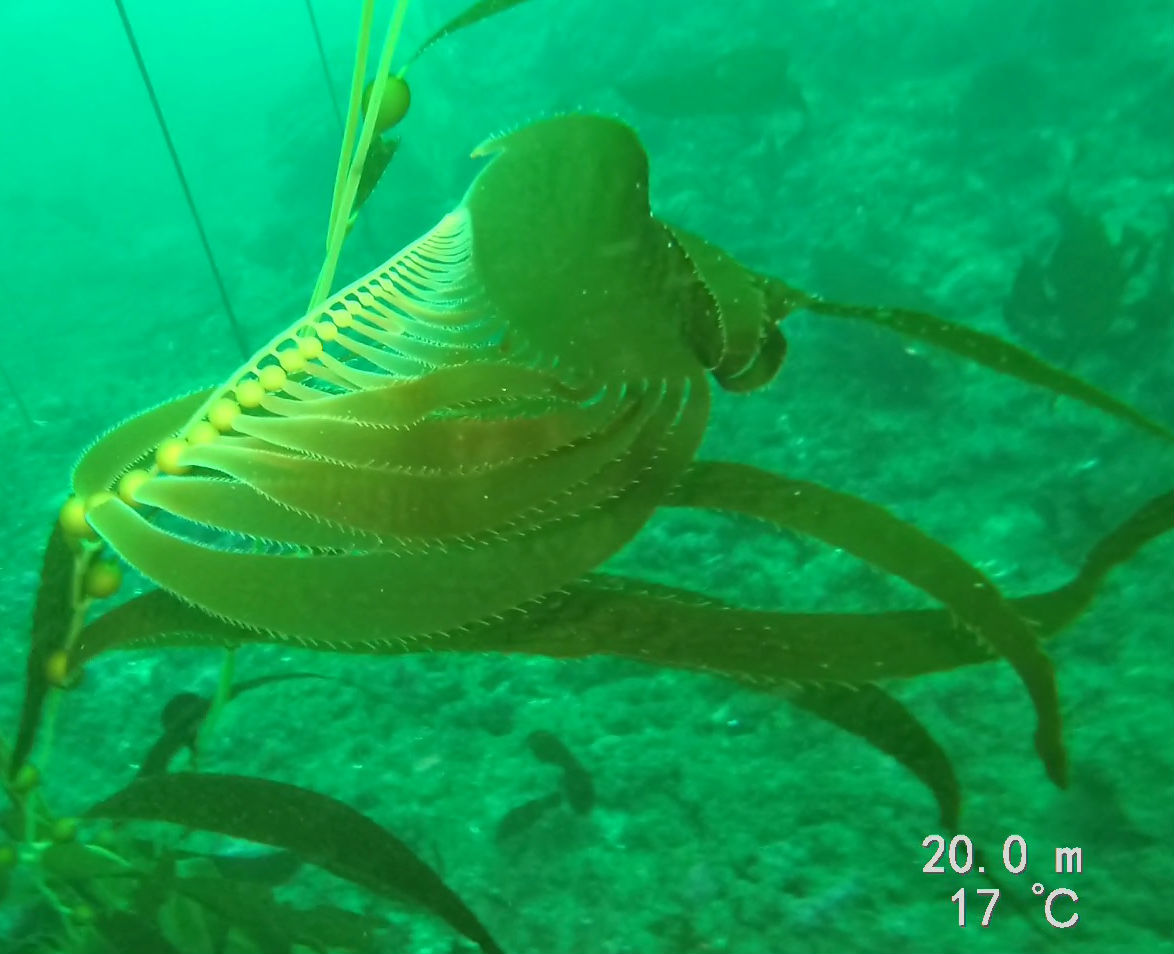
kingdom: Chromista
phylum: Ochrophyta
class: Phaeophyceae
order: Laminariales
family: Laminariaceae
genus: Macrocystis
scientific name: Macrocystis pyrifera
